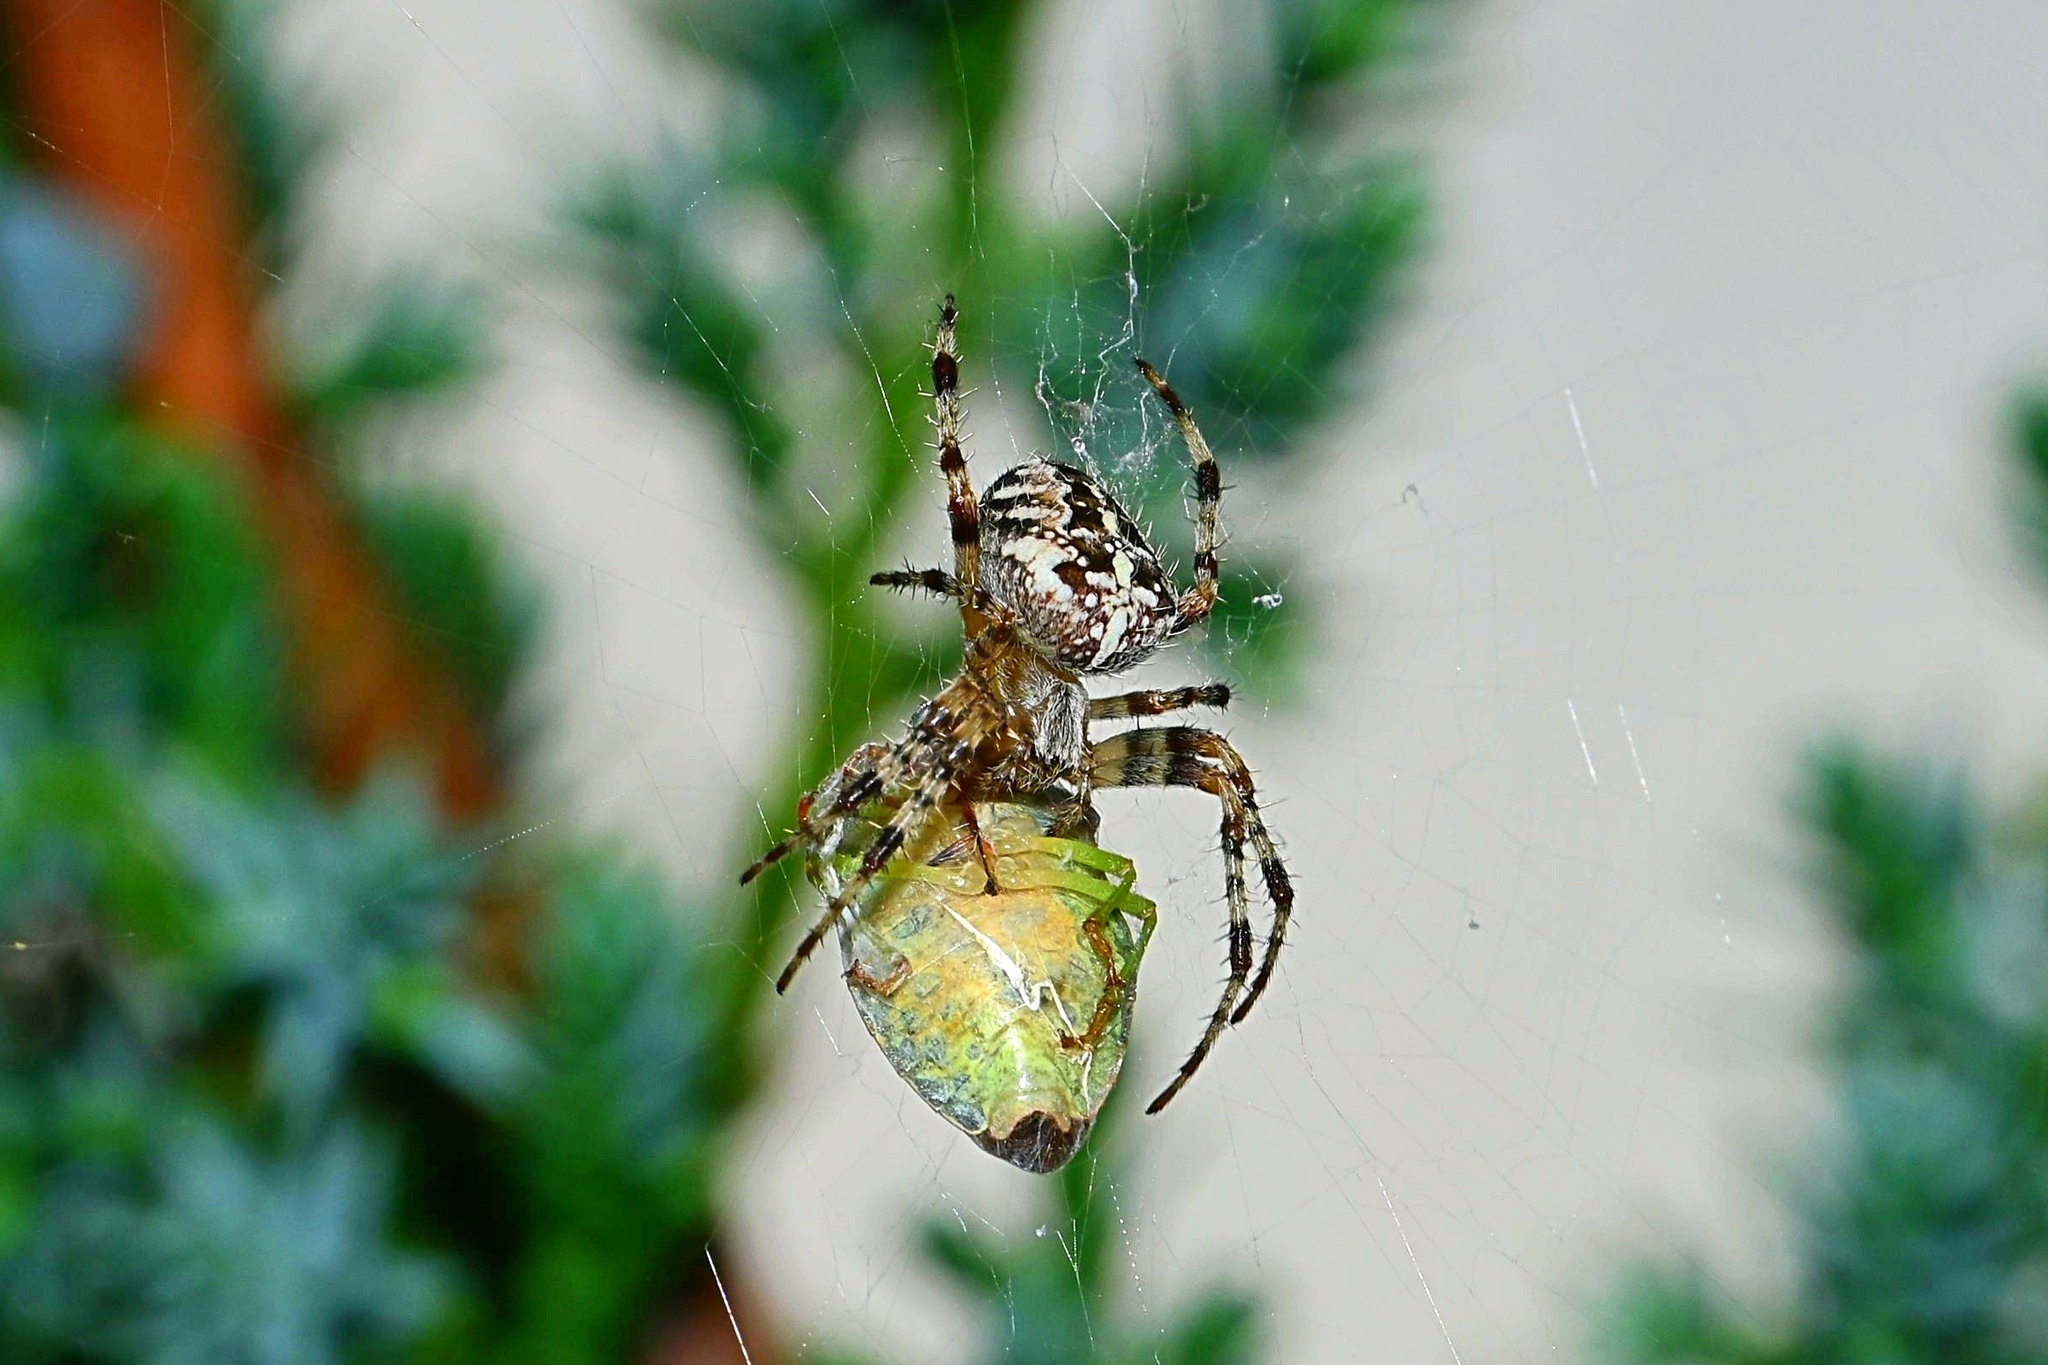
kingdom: Animalia
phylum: Arthropoda
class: Arachnida
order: Araneae
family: Araneidae
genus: Araneus
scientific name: Araneus diadematus
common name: Cross orbweaver
